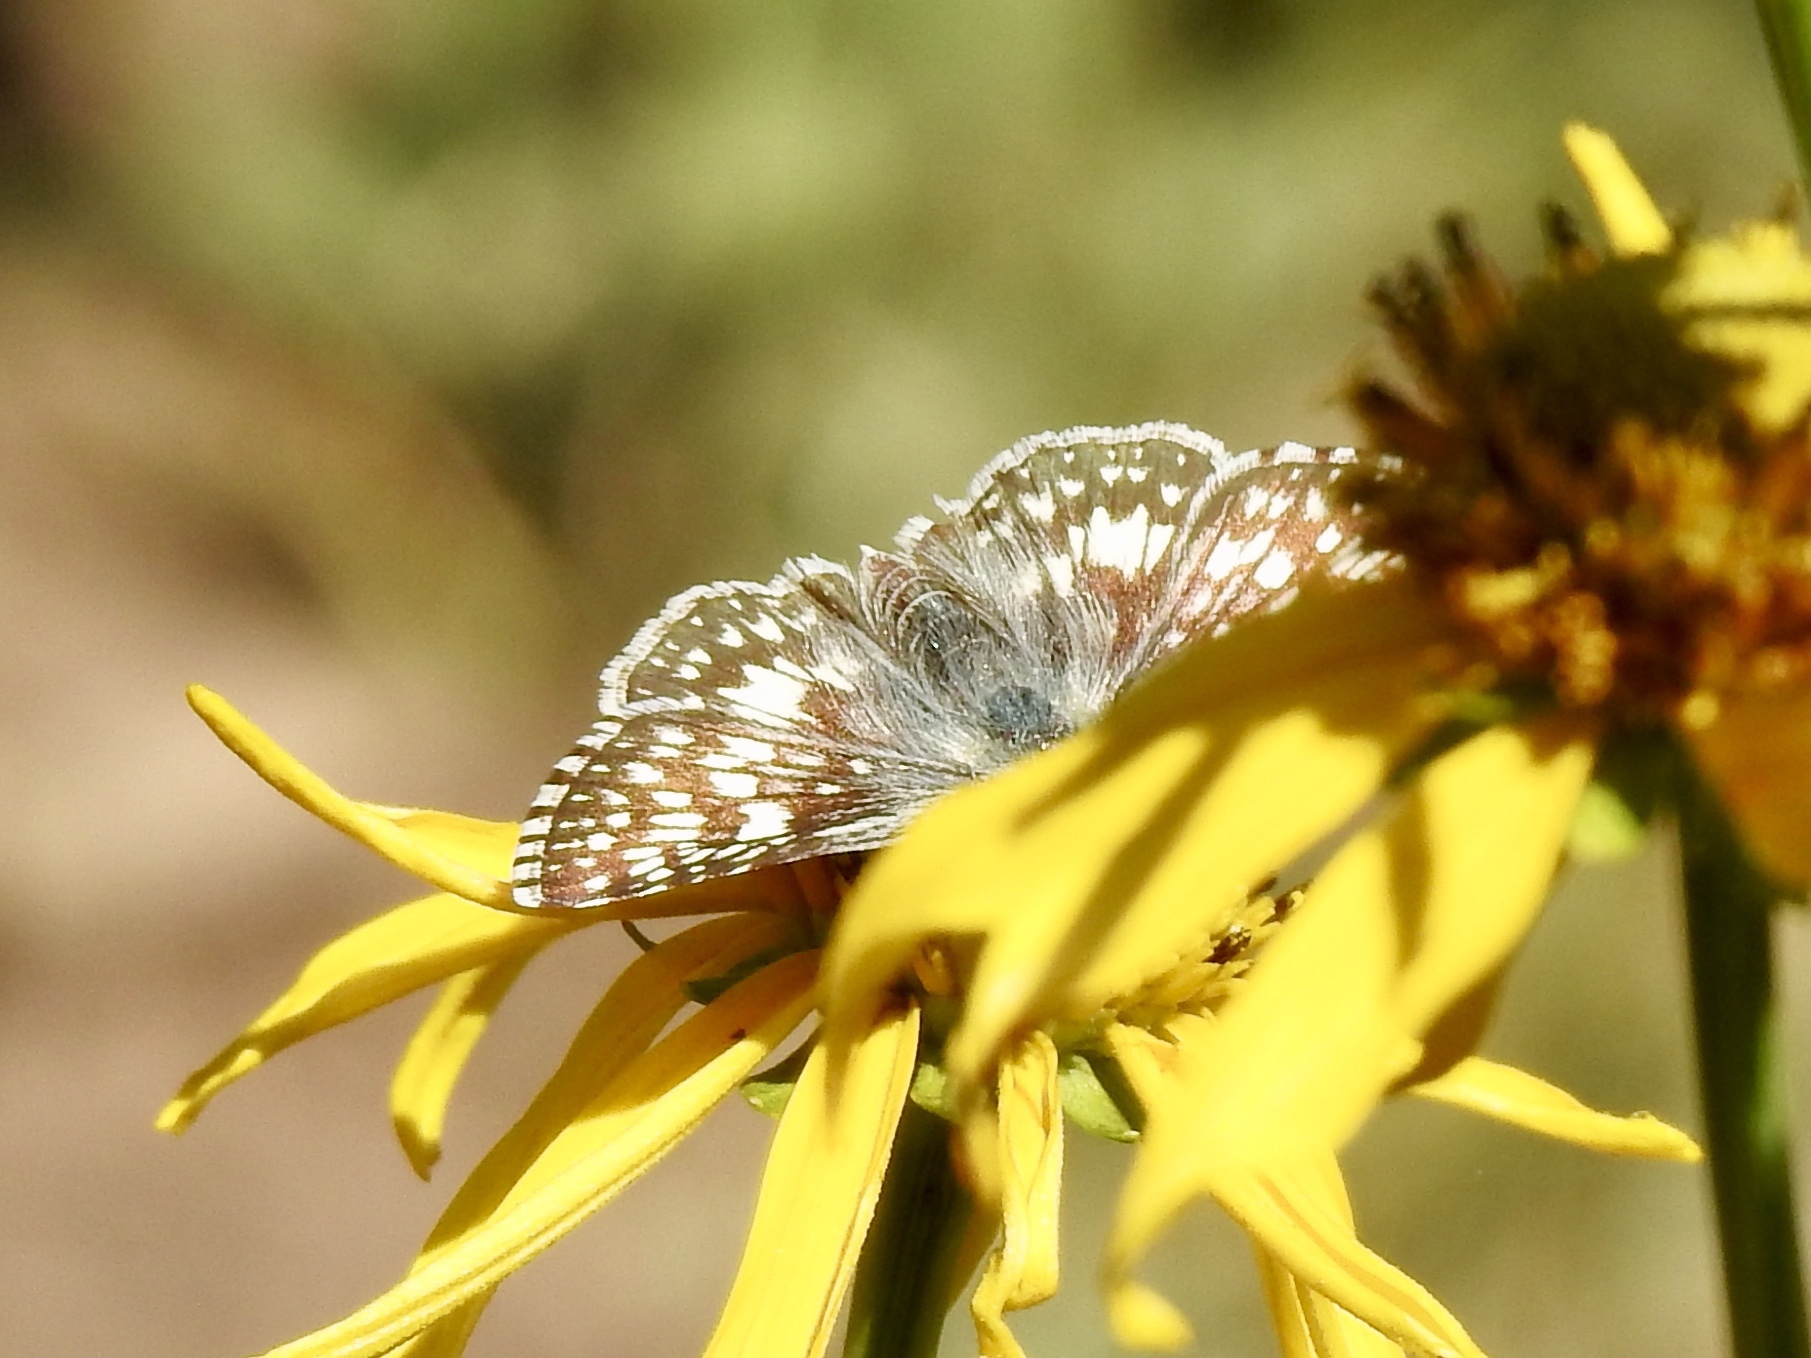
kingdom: Animalia
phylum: Arthropoda
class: Insecta
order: Lepidoptera
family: Hesperiidae
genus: Burnsius
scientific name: Burnsius communis
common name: Common checkered-skipper
